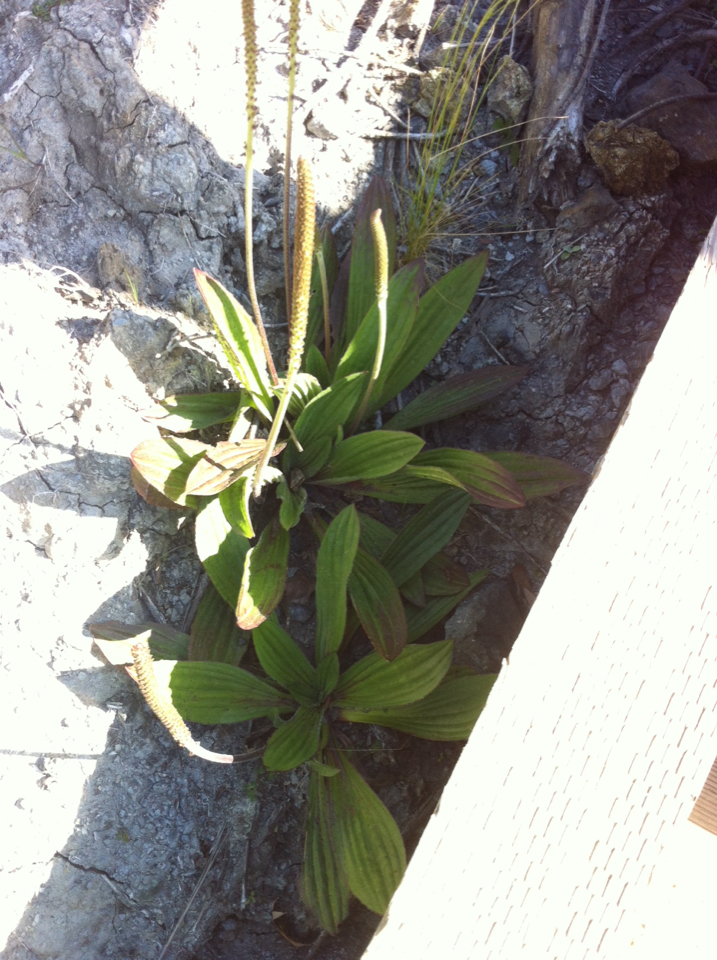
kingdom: Plantae
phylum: Tracheophyta
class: Magnoliopsida
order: Lamiales
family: Plantaginaceae
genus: Plantago
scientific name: Plantago major
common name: Common plantain
